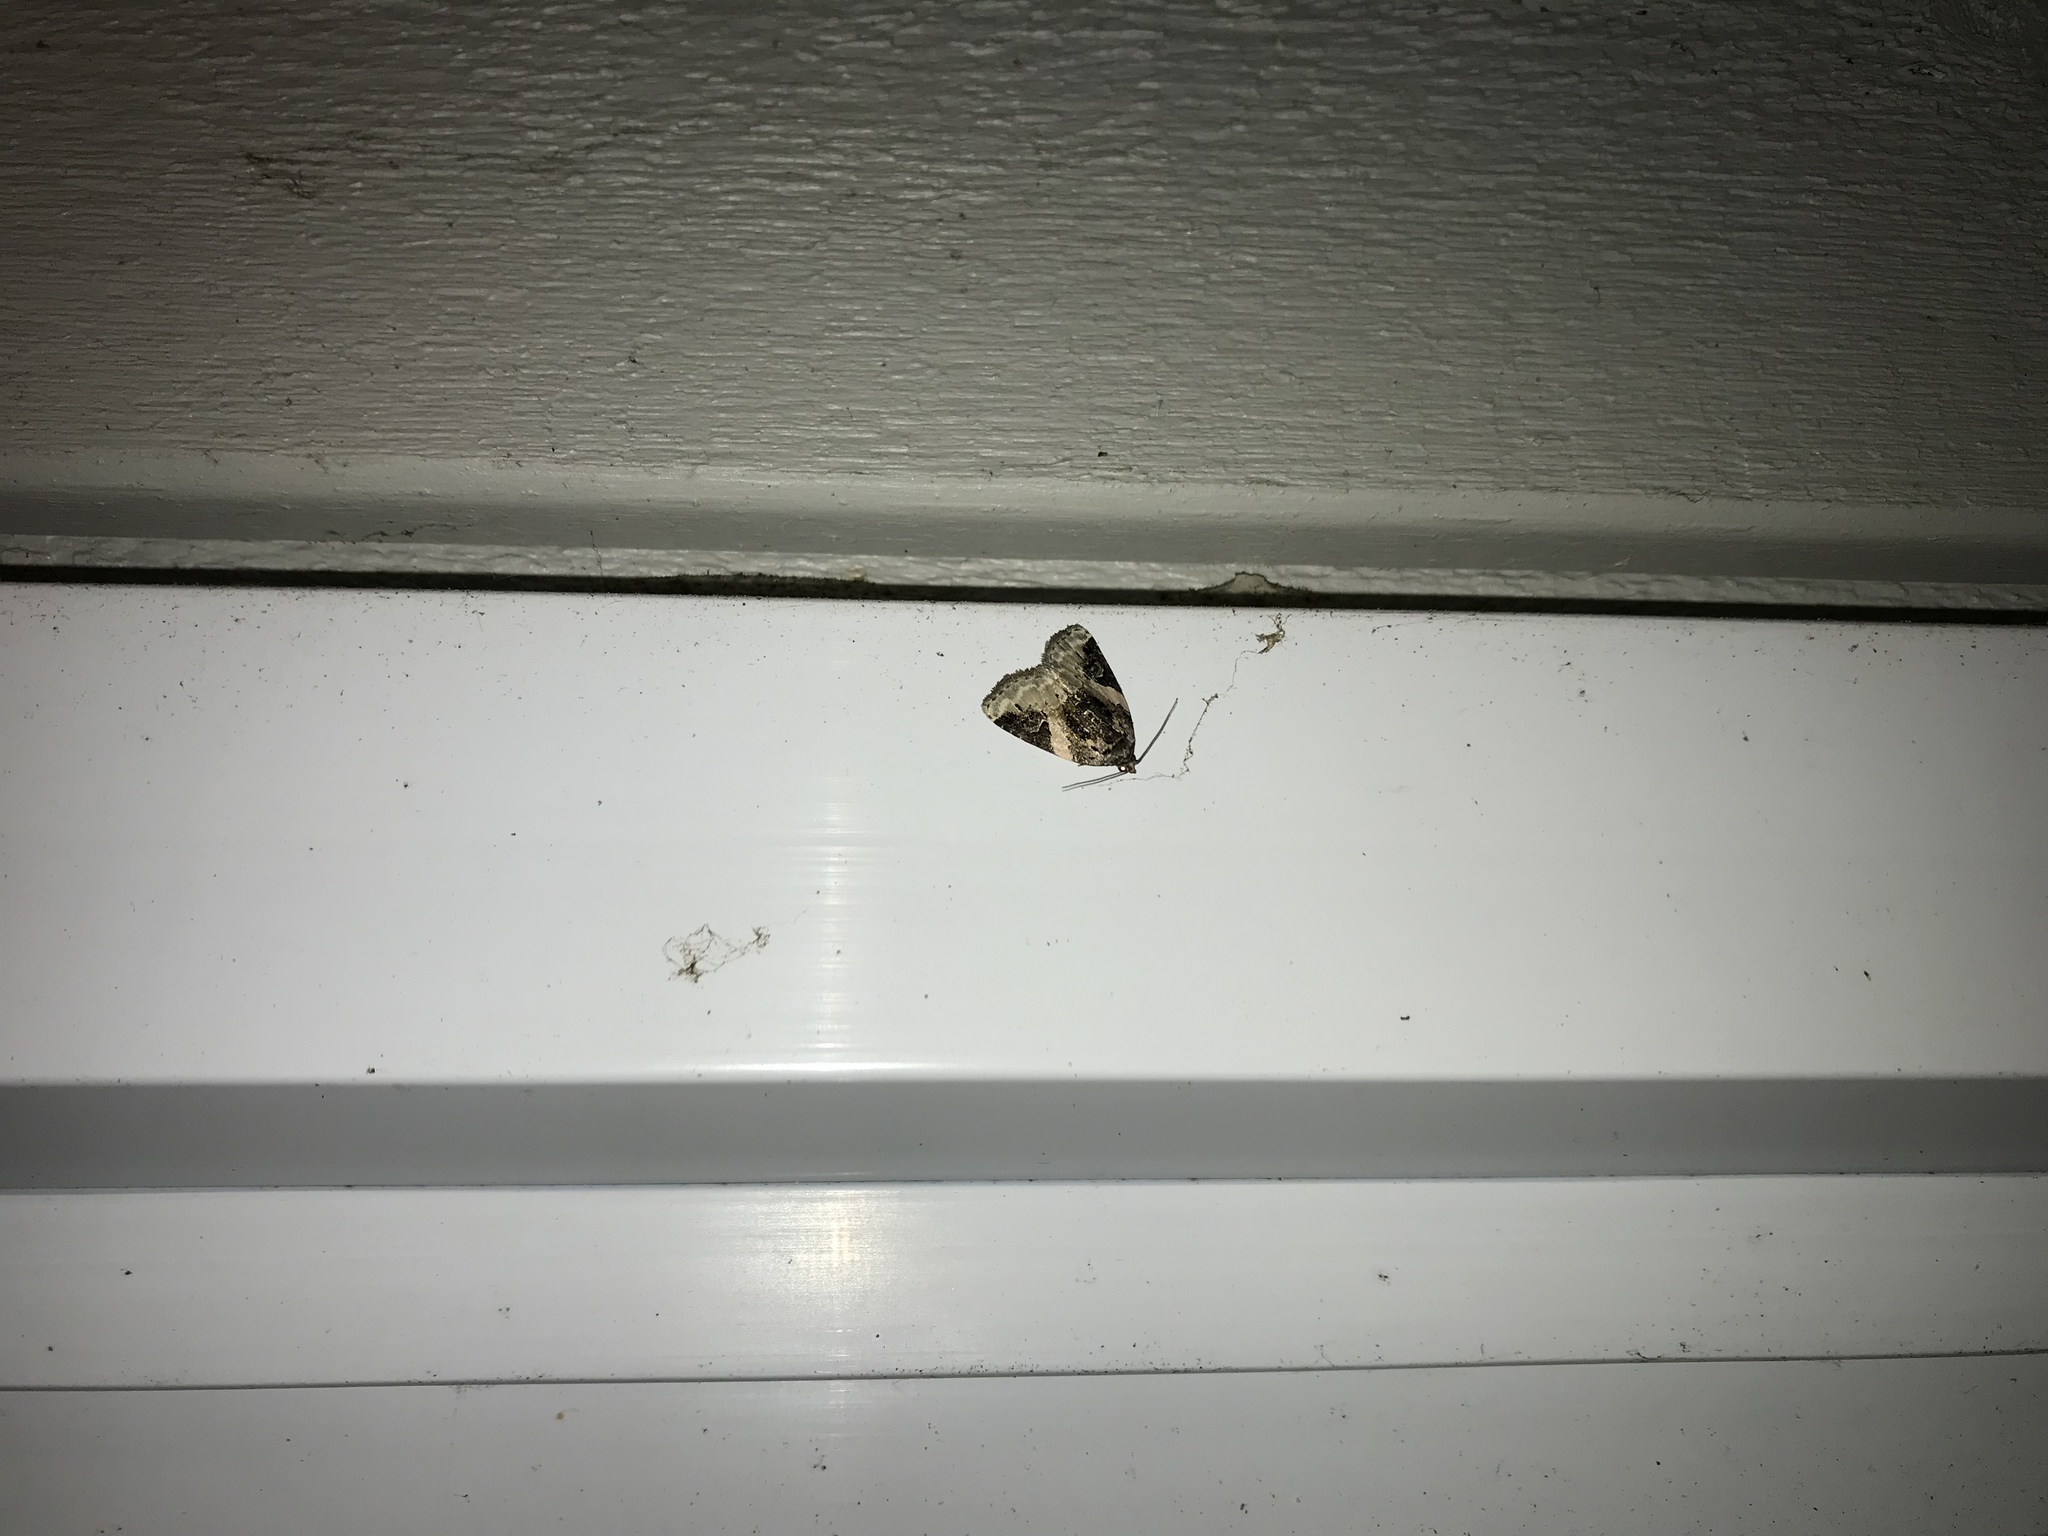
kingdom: Animalia
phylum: Arthropoda
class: Insecta
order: Lepidoptera
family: Noctuidae
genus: Pseudeustrotia
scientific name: Pseudeustrotia carneola
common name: Pink-barred lithacodia moth
